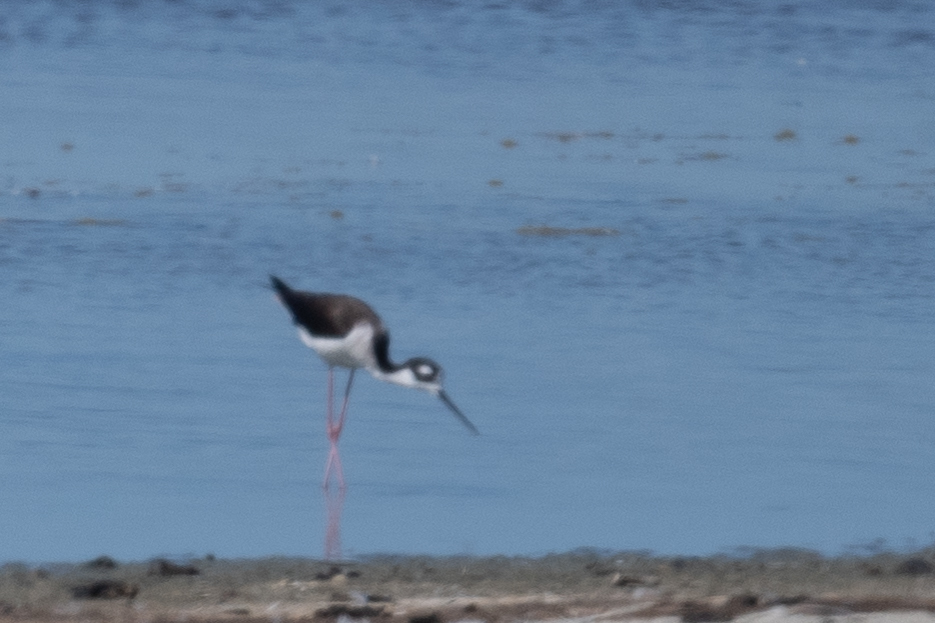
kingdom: Animalia
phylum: Chordata
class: Aves
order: Charadriiformes
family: Recurvirostridae
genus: Himantopus
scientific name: Himantopus mexicanus
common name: Black-necked stilt
